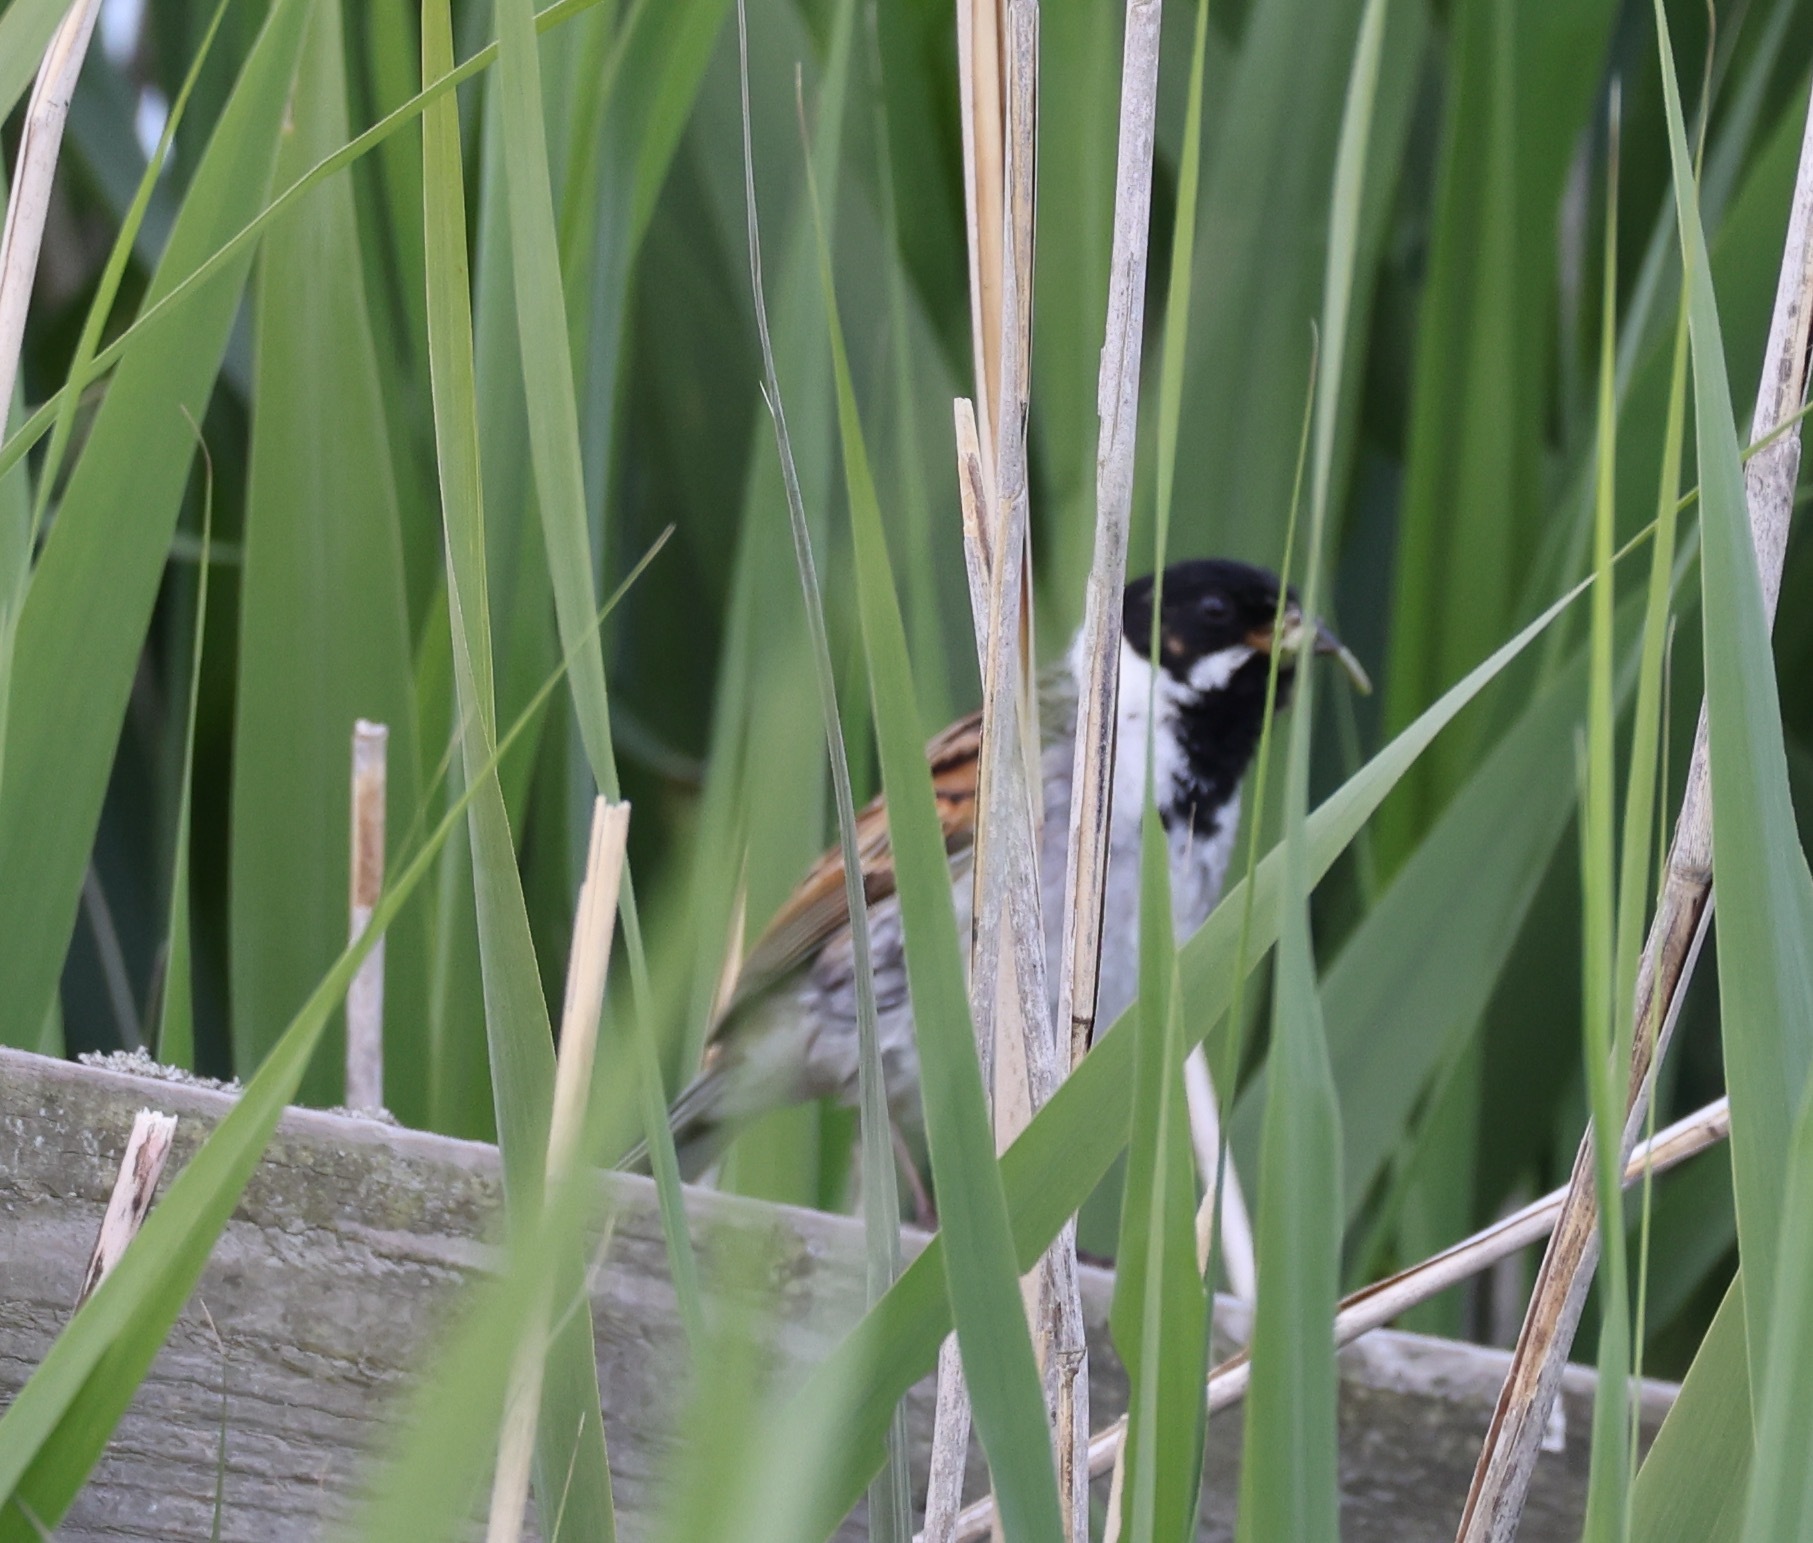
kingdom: Animalia
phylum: Chordata
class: Aves
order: Passeriformes
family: Emberizidae
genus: Emberiza
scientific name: Emberiza schoeniclus
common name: Reed bunting
